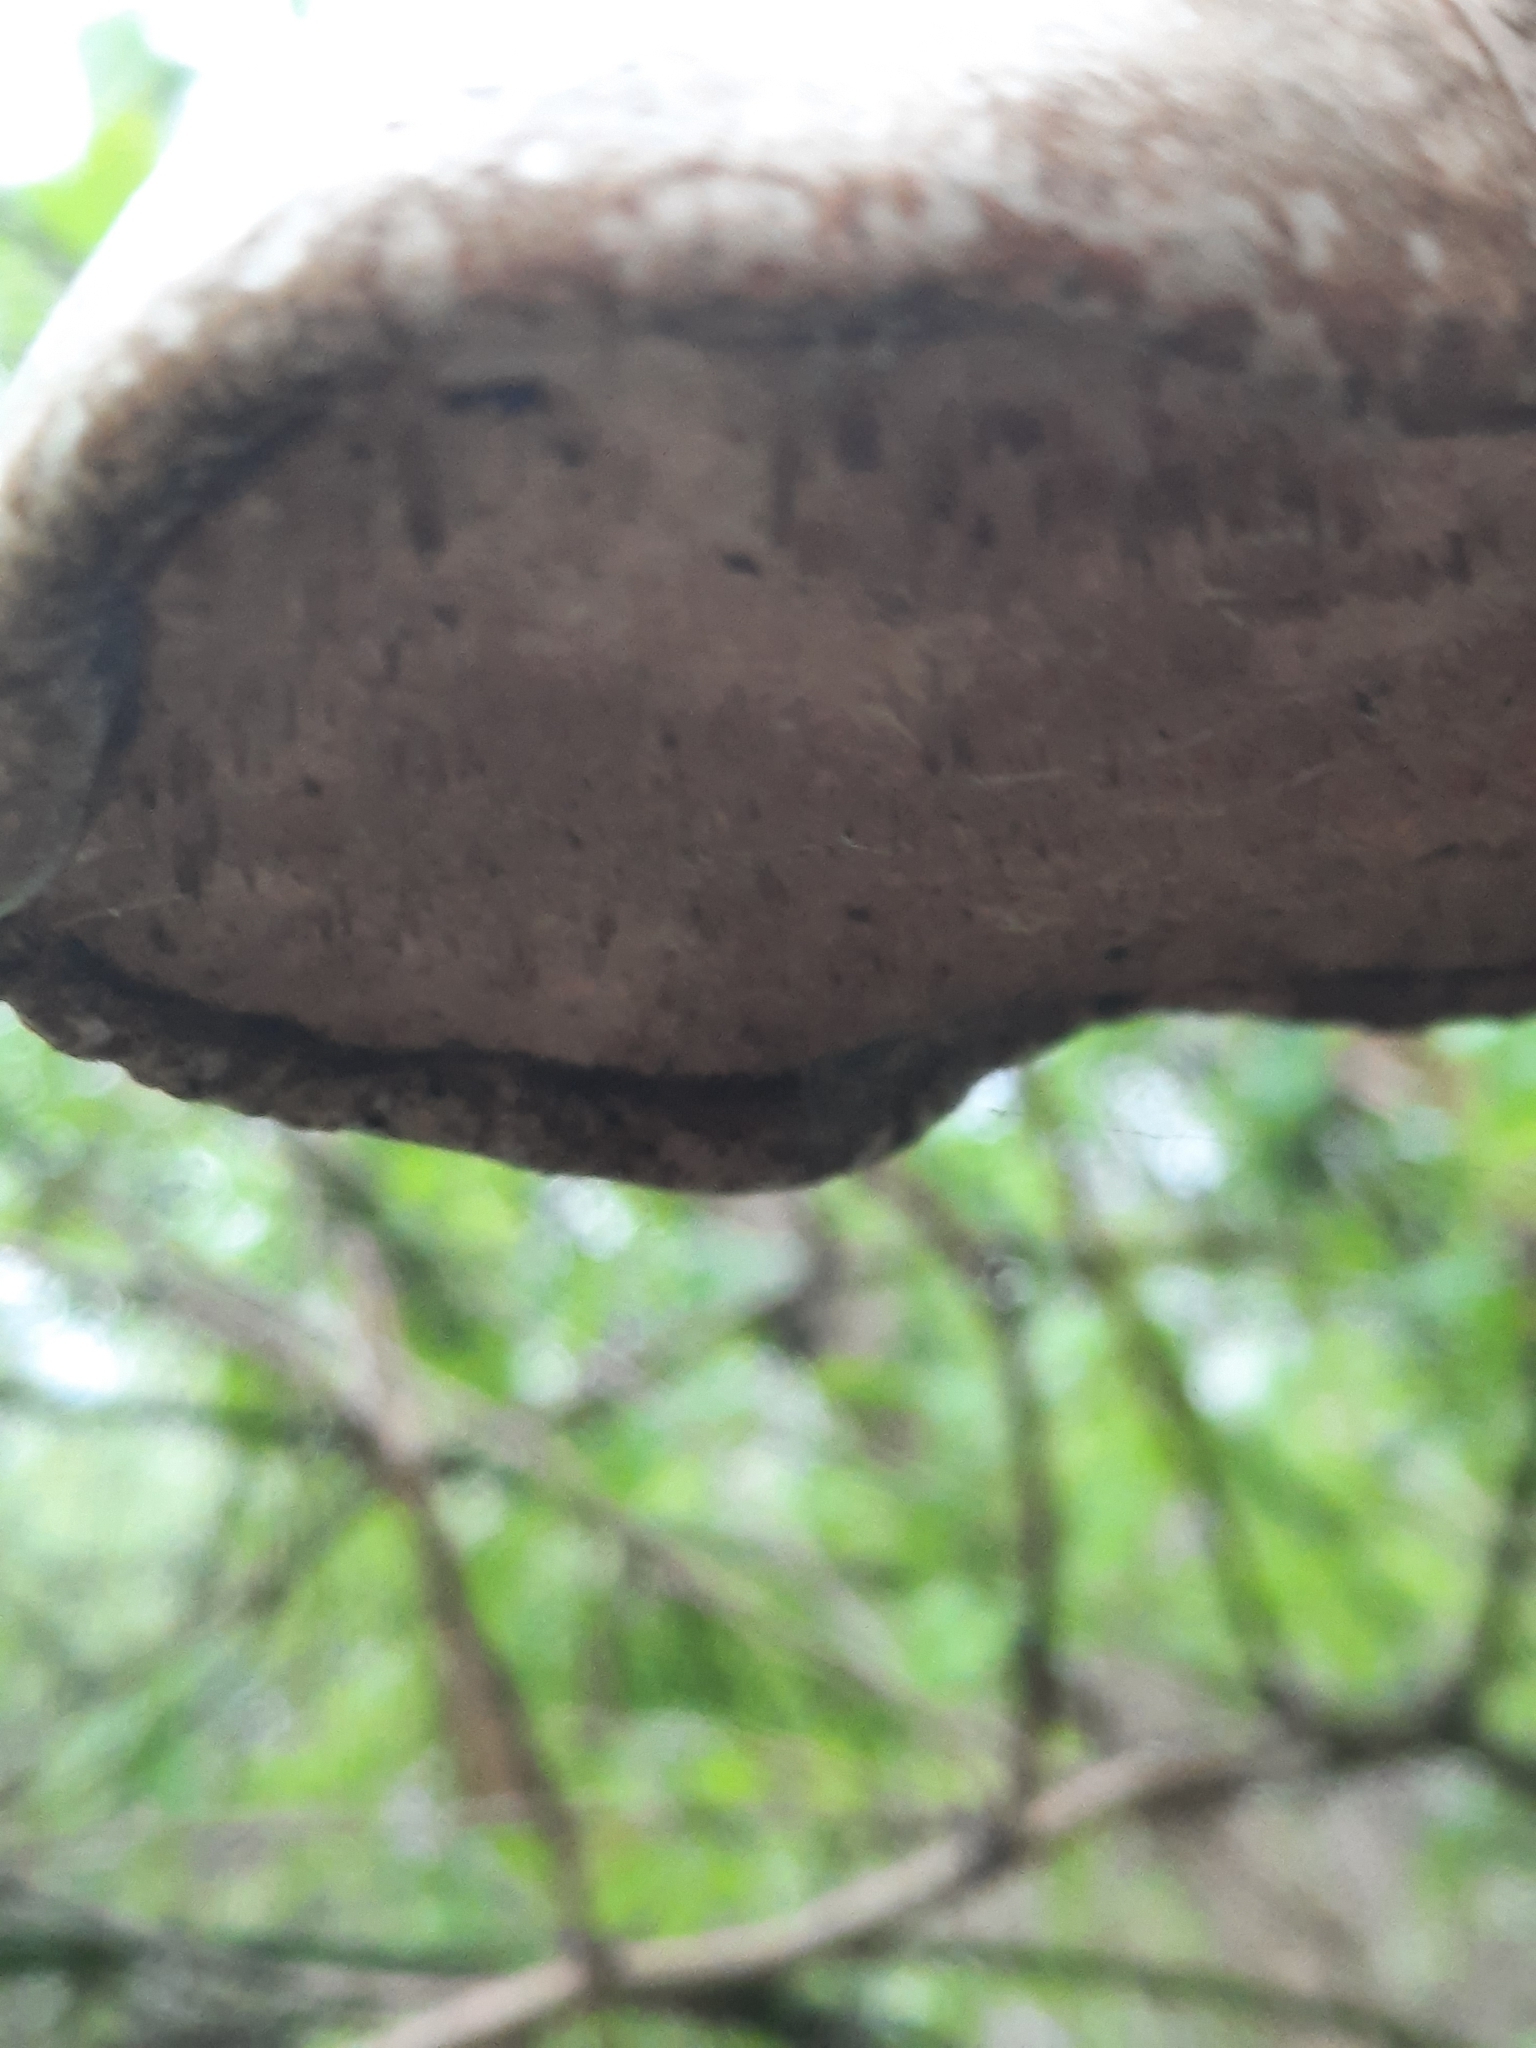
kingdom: Fungi
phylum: Basidiomycota
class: Agaricomycetes
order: Polyporales
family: Fomitopsidaceae
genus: Fomitopsis
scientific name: Fomitopsis betulina
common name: Birch polypore
